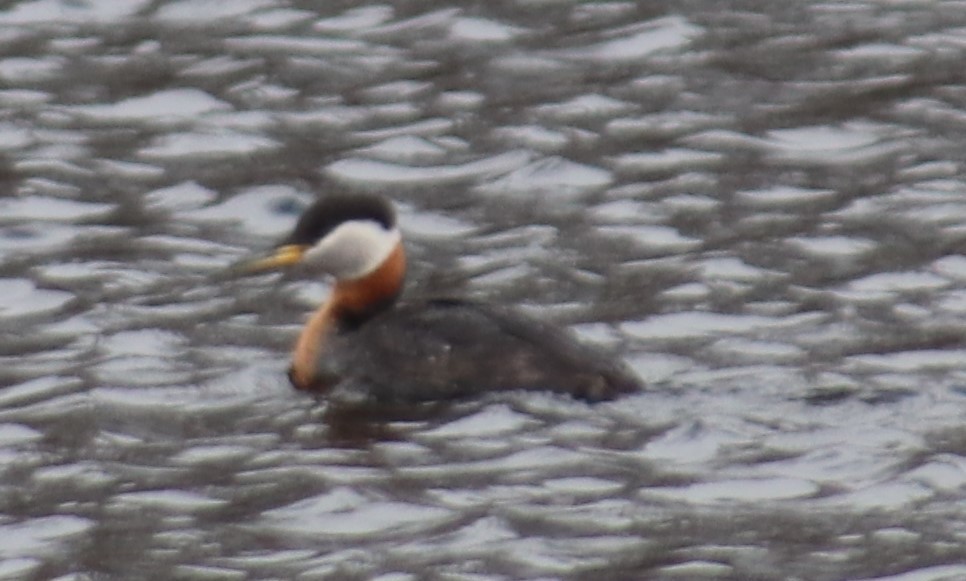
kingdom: Animalia
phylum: Chordata
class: Aves
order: Podicipediformes
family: Podicipedidae
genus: Podiceps
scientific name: Podiceps grisegena
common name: Red-necked grebe
